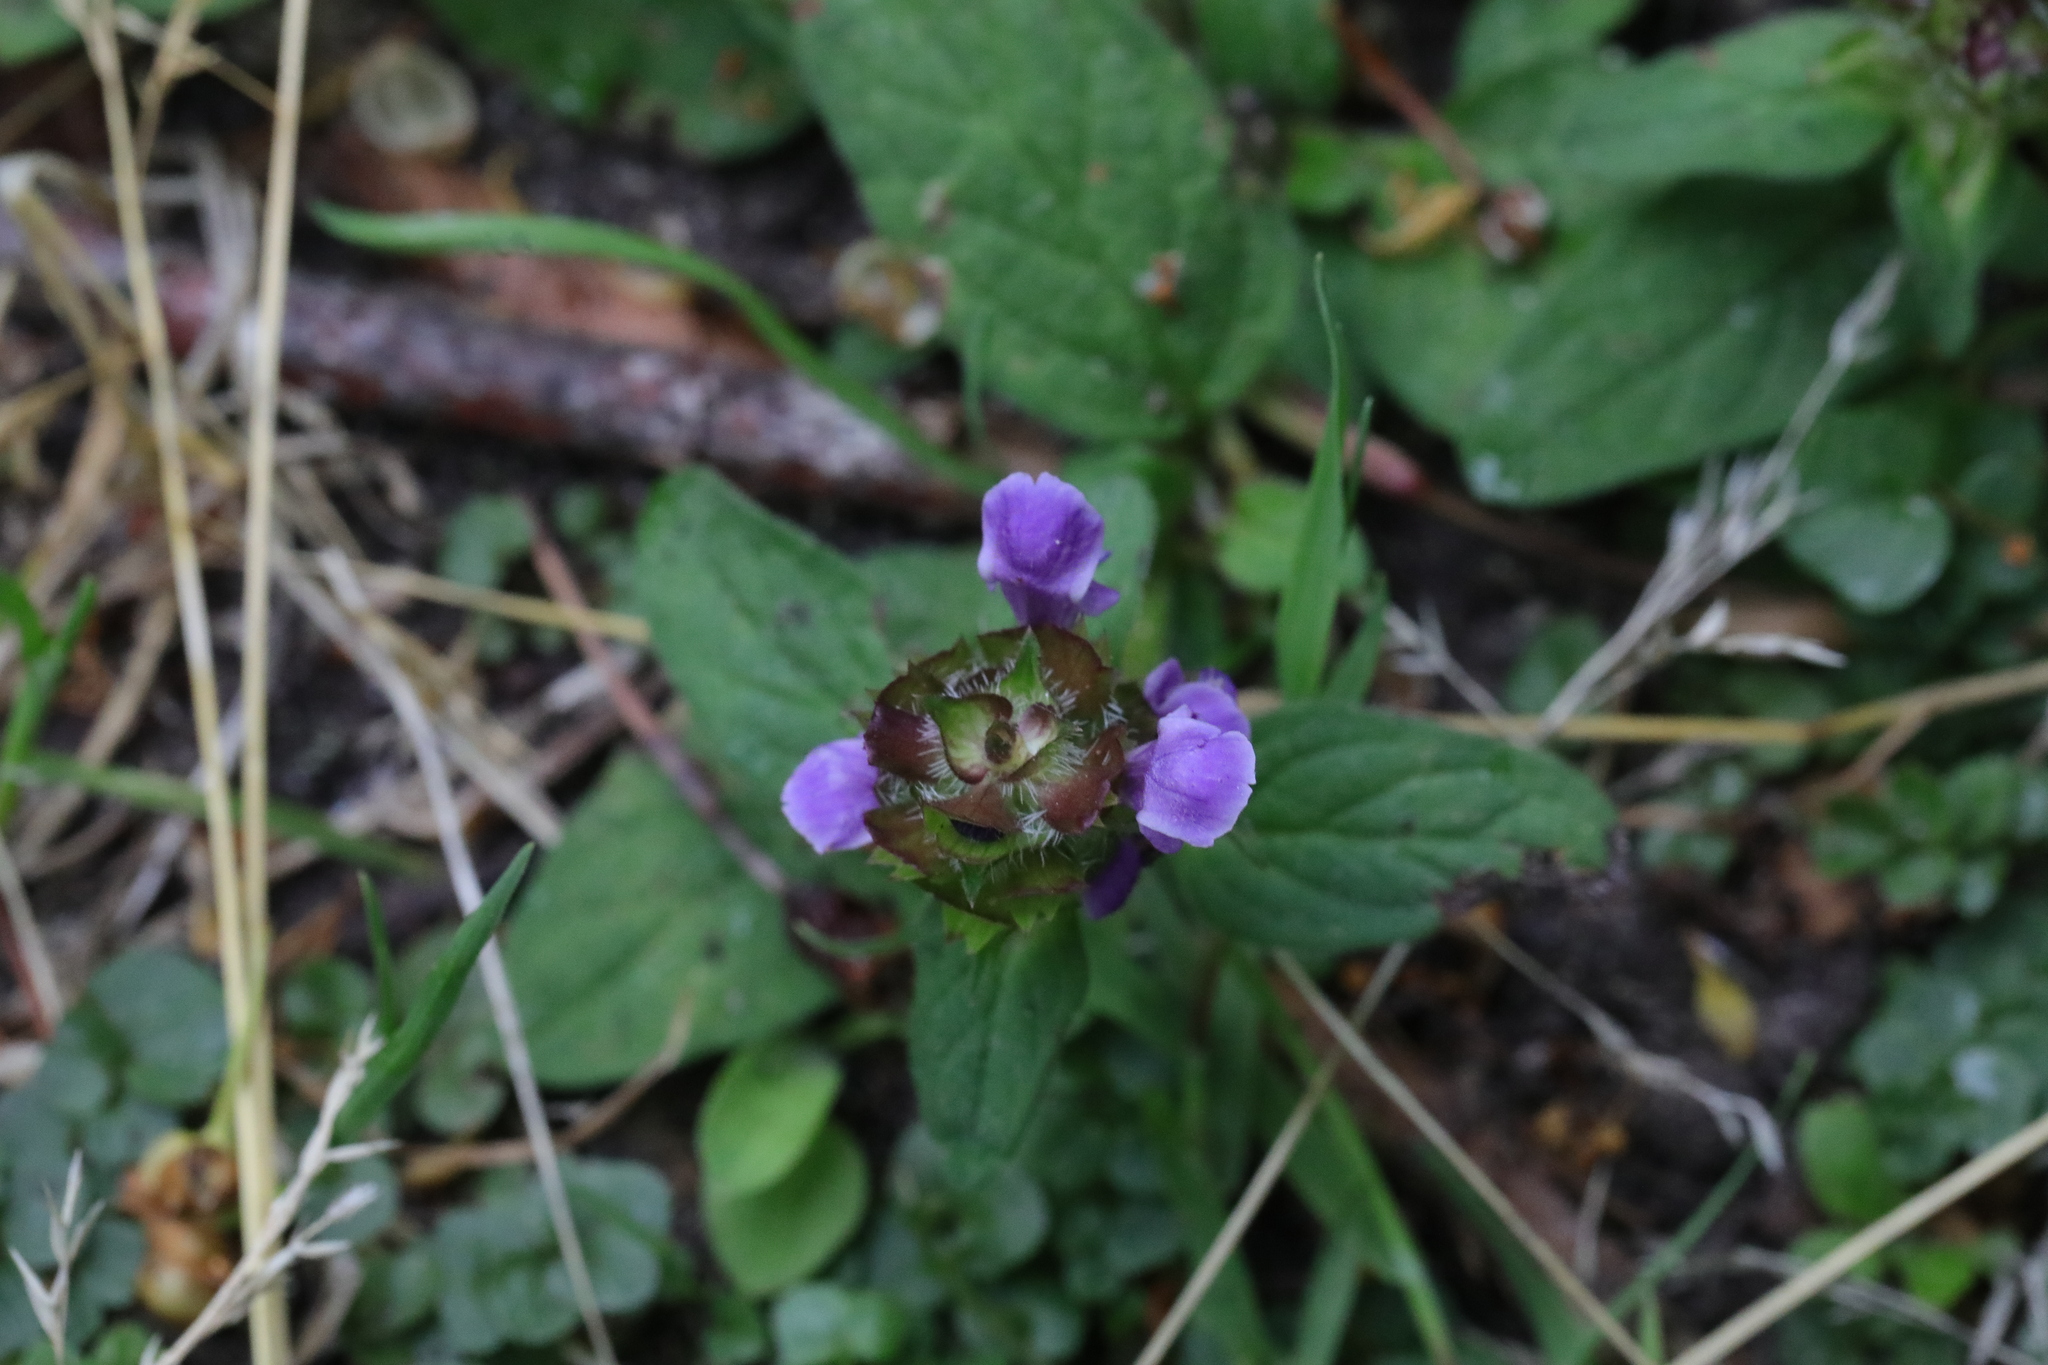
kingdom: Plantae
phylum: Tracheophyta
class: Magnoliopsida
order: Lamiales
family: Lamiaceae
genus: Prunella
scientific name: Prunella vulgaris
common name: Heal-all
